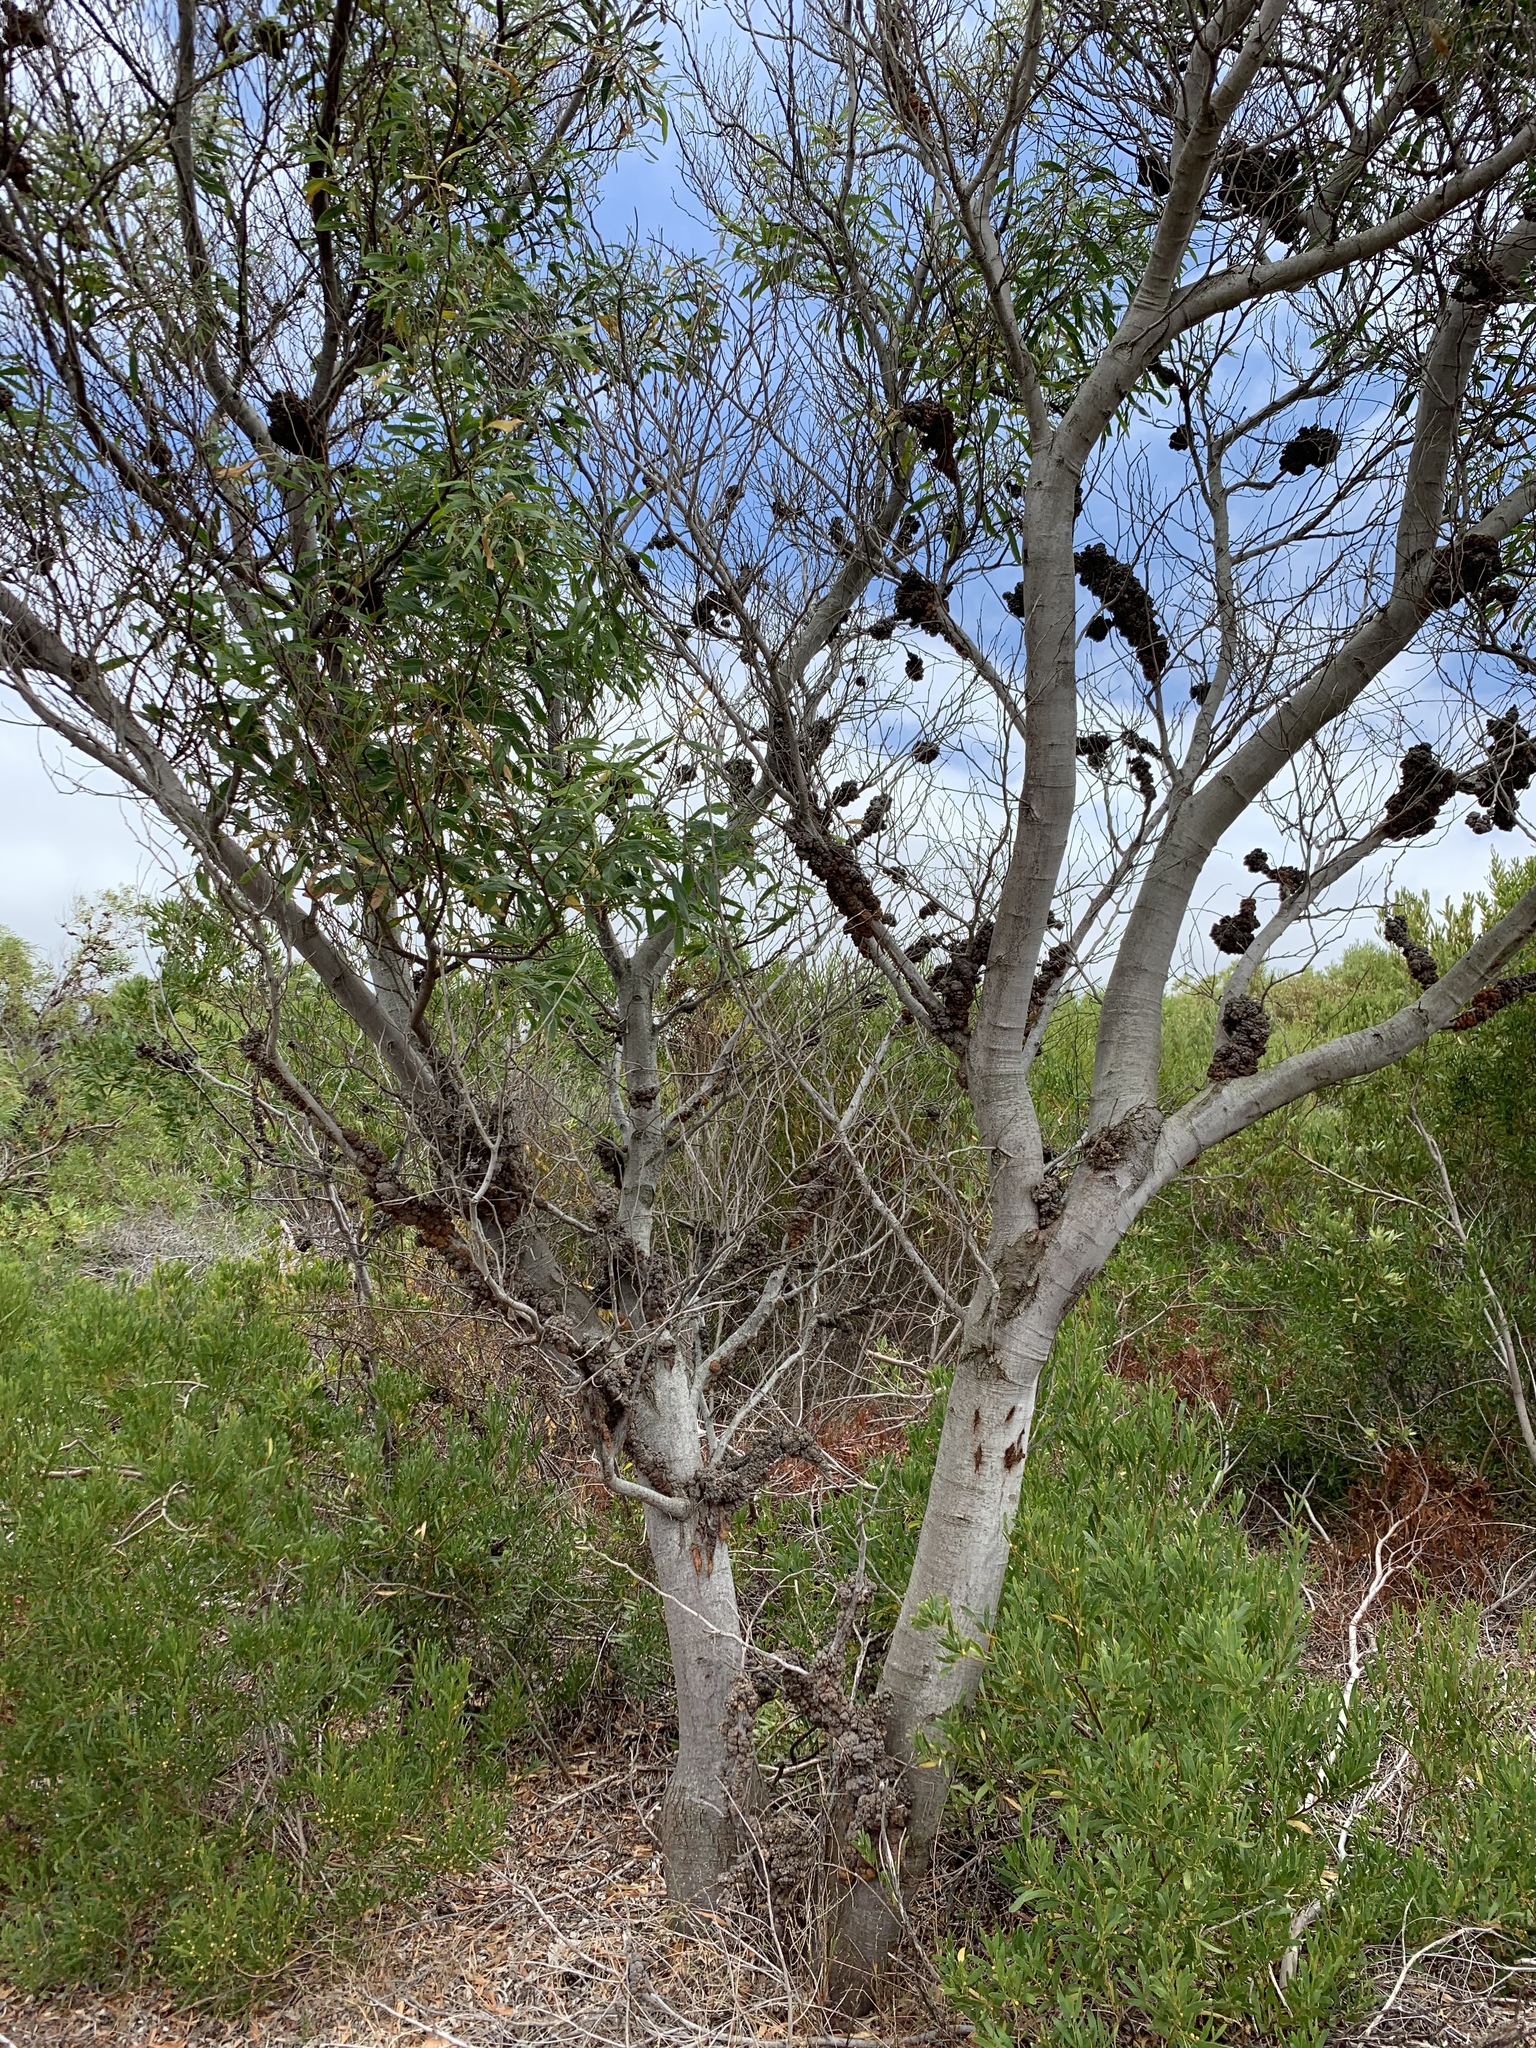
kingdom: Plantae
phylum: Tracheophyta
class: Magnoliopsida
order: Fabales
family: Fabaceae
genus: Acacia
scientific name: Acacia saligna
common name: Orange wattle
